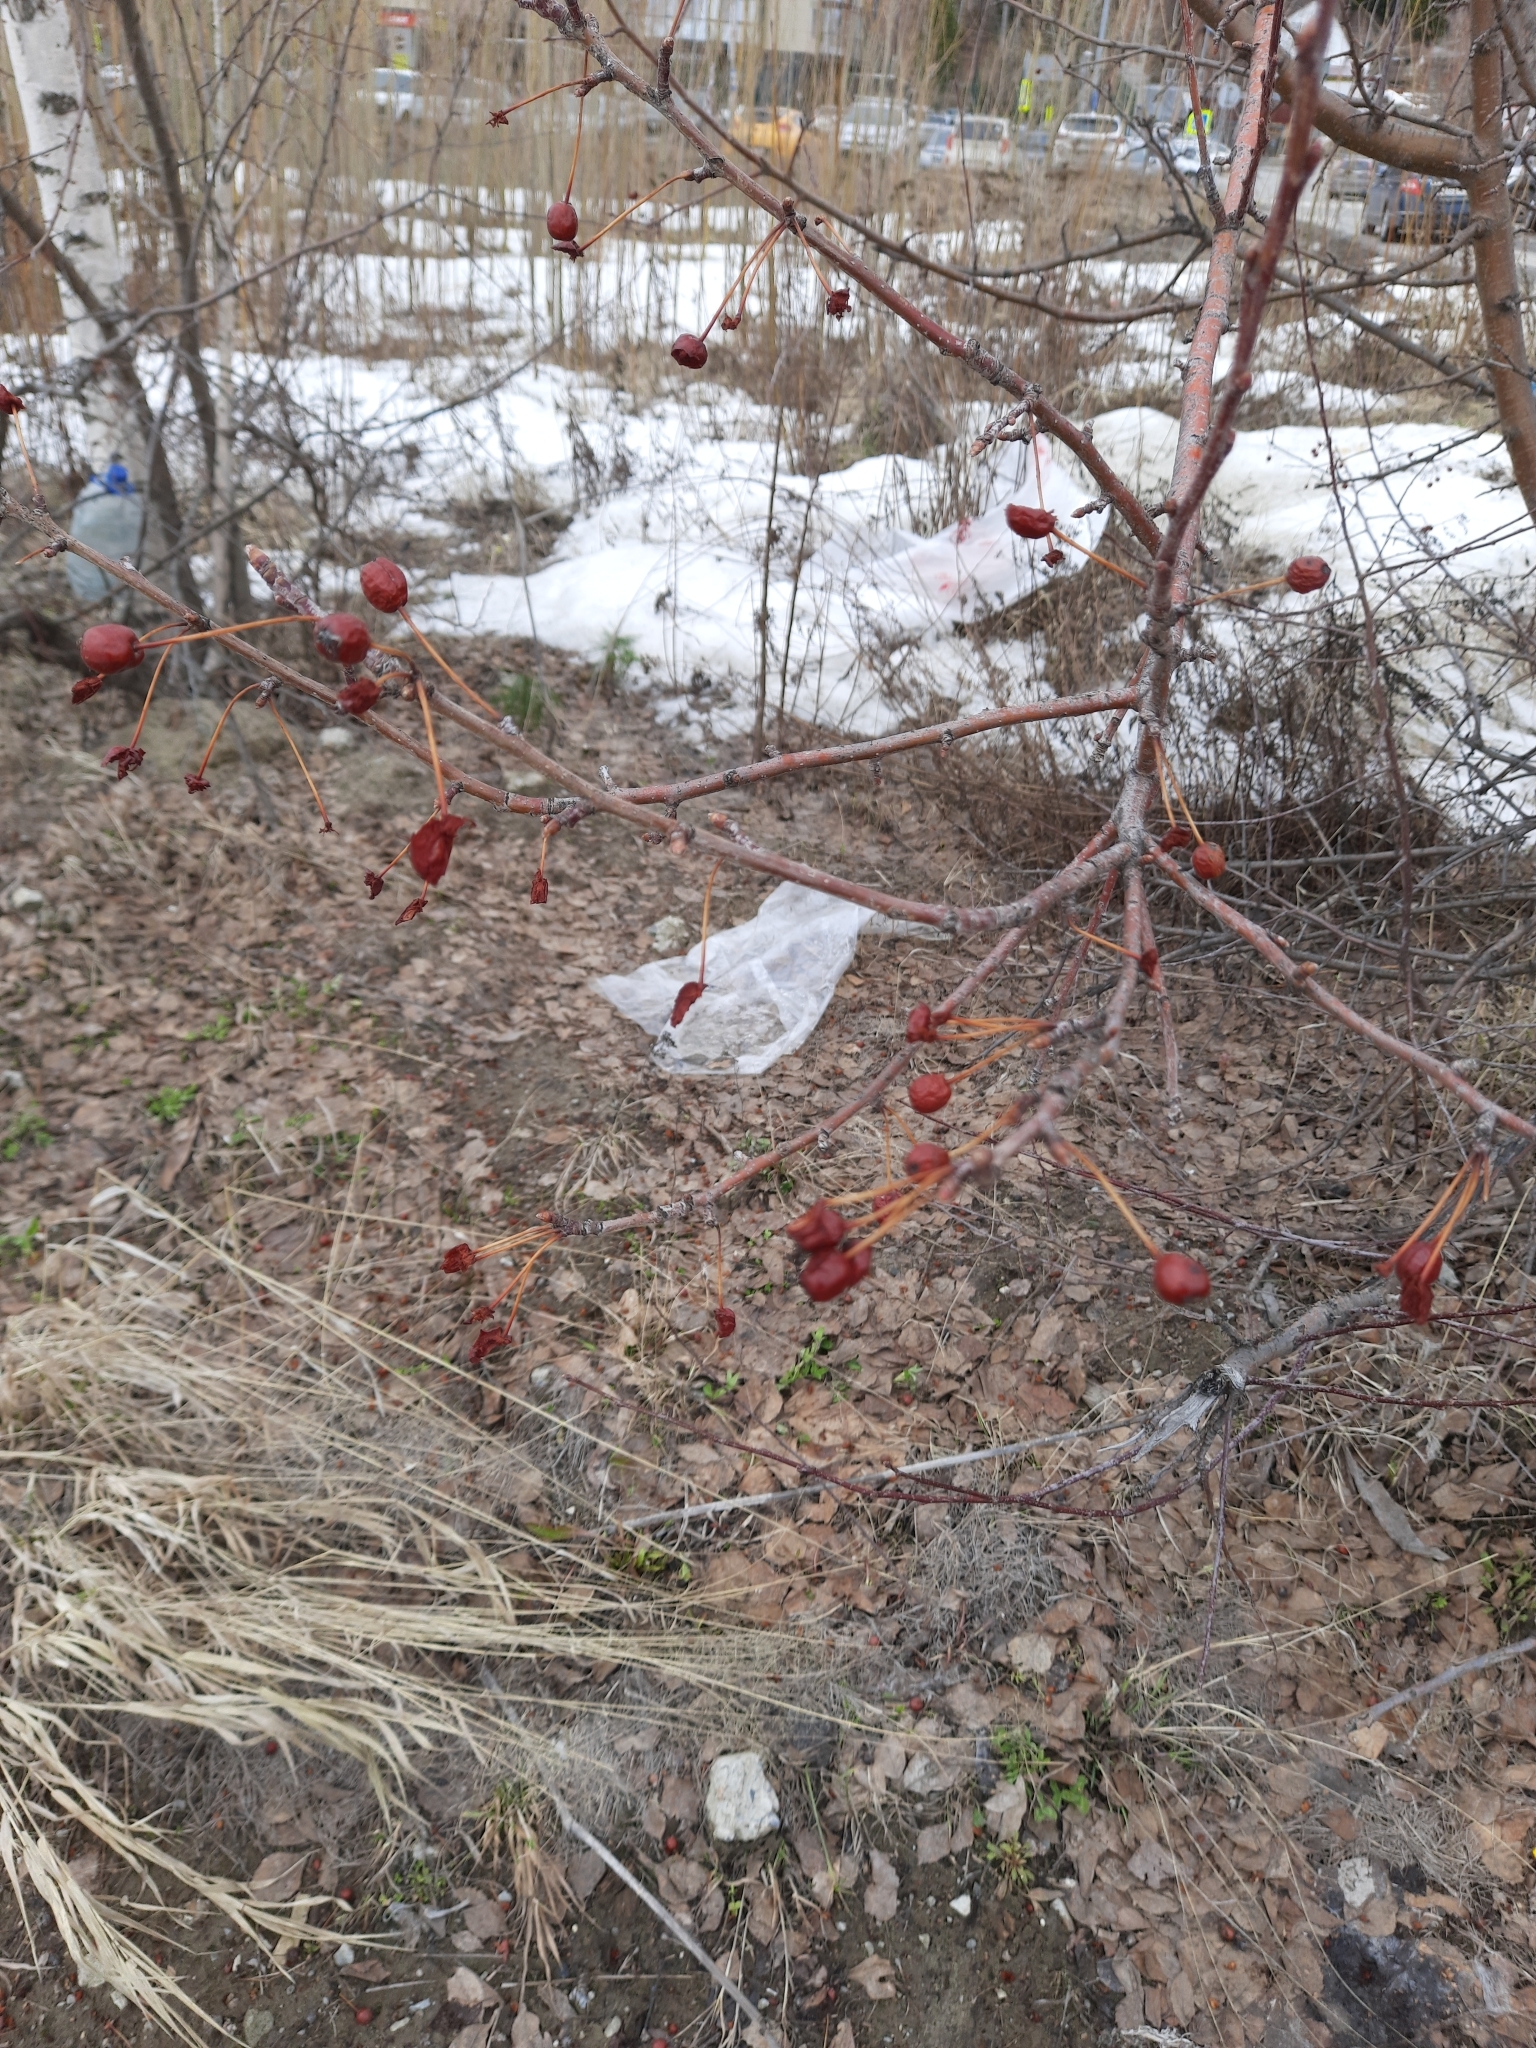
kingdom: Plantae
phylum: Tracheophyta
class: Magnoliopsida
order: Rosales
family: Rosaceae
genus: Malus
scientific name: Malus baccata
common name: Siberian crab
